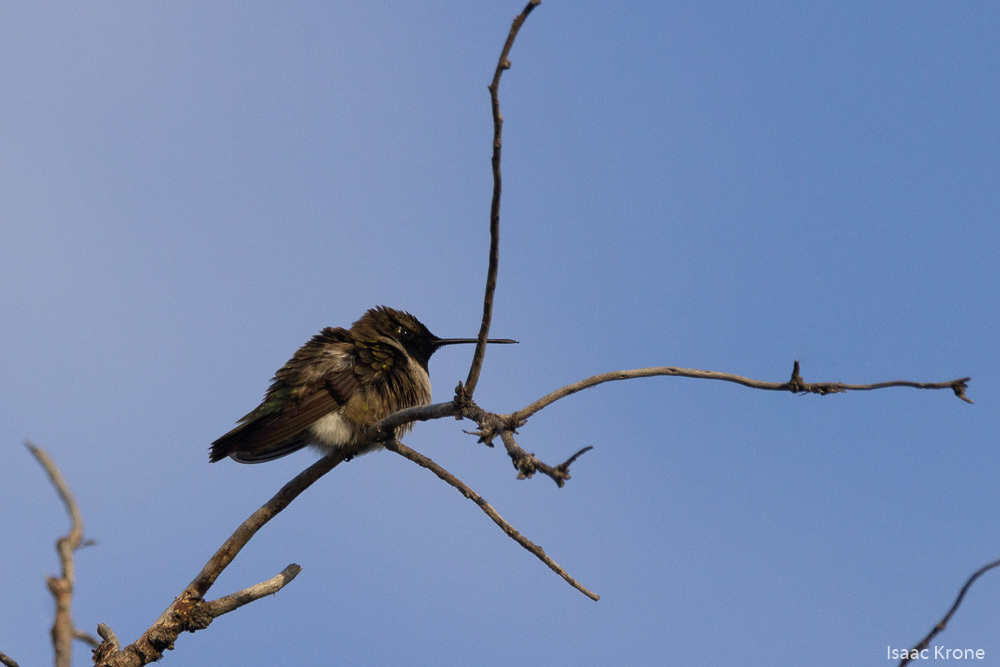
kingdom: Animalia
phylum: Chordata
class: Aves
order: Apodiformes
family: Trochilidae
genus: Archilochus
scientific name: Archilochus alexandri
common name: Black-chinned hummingbird
